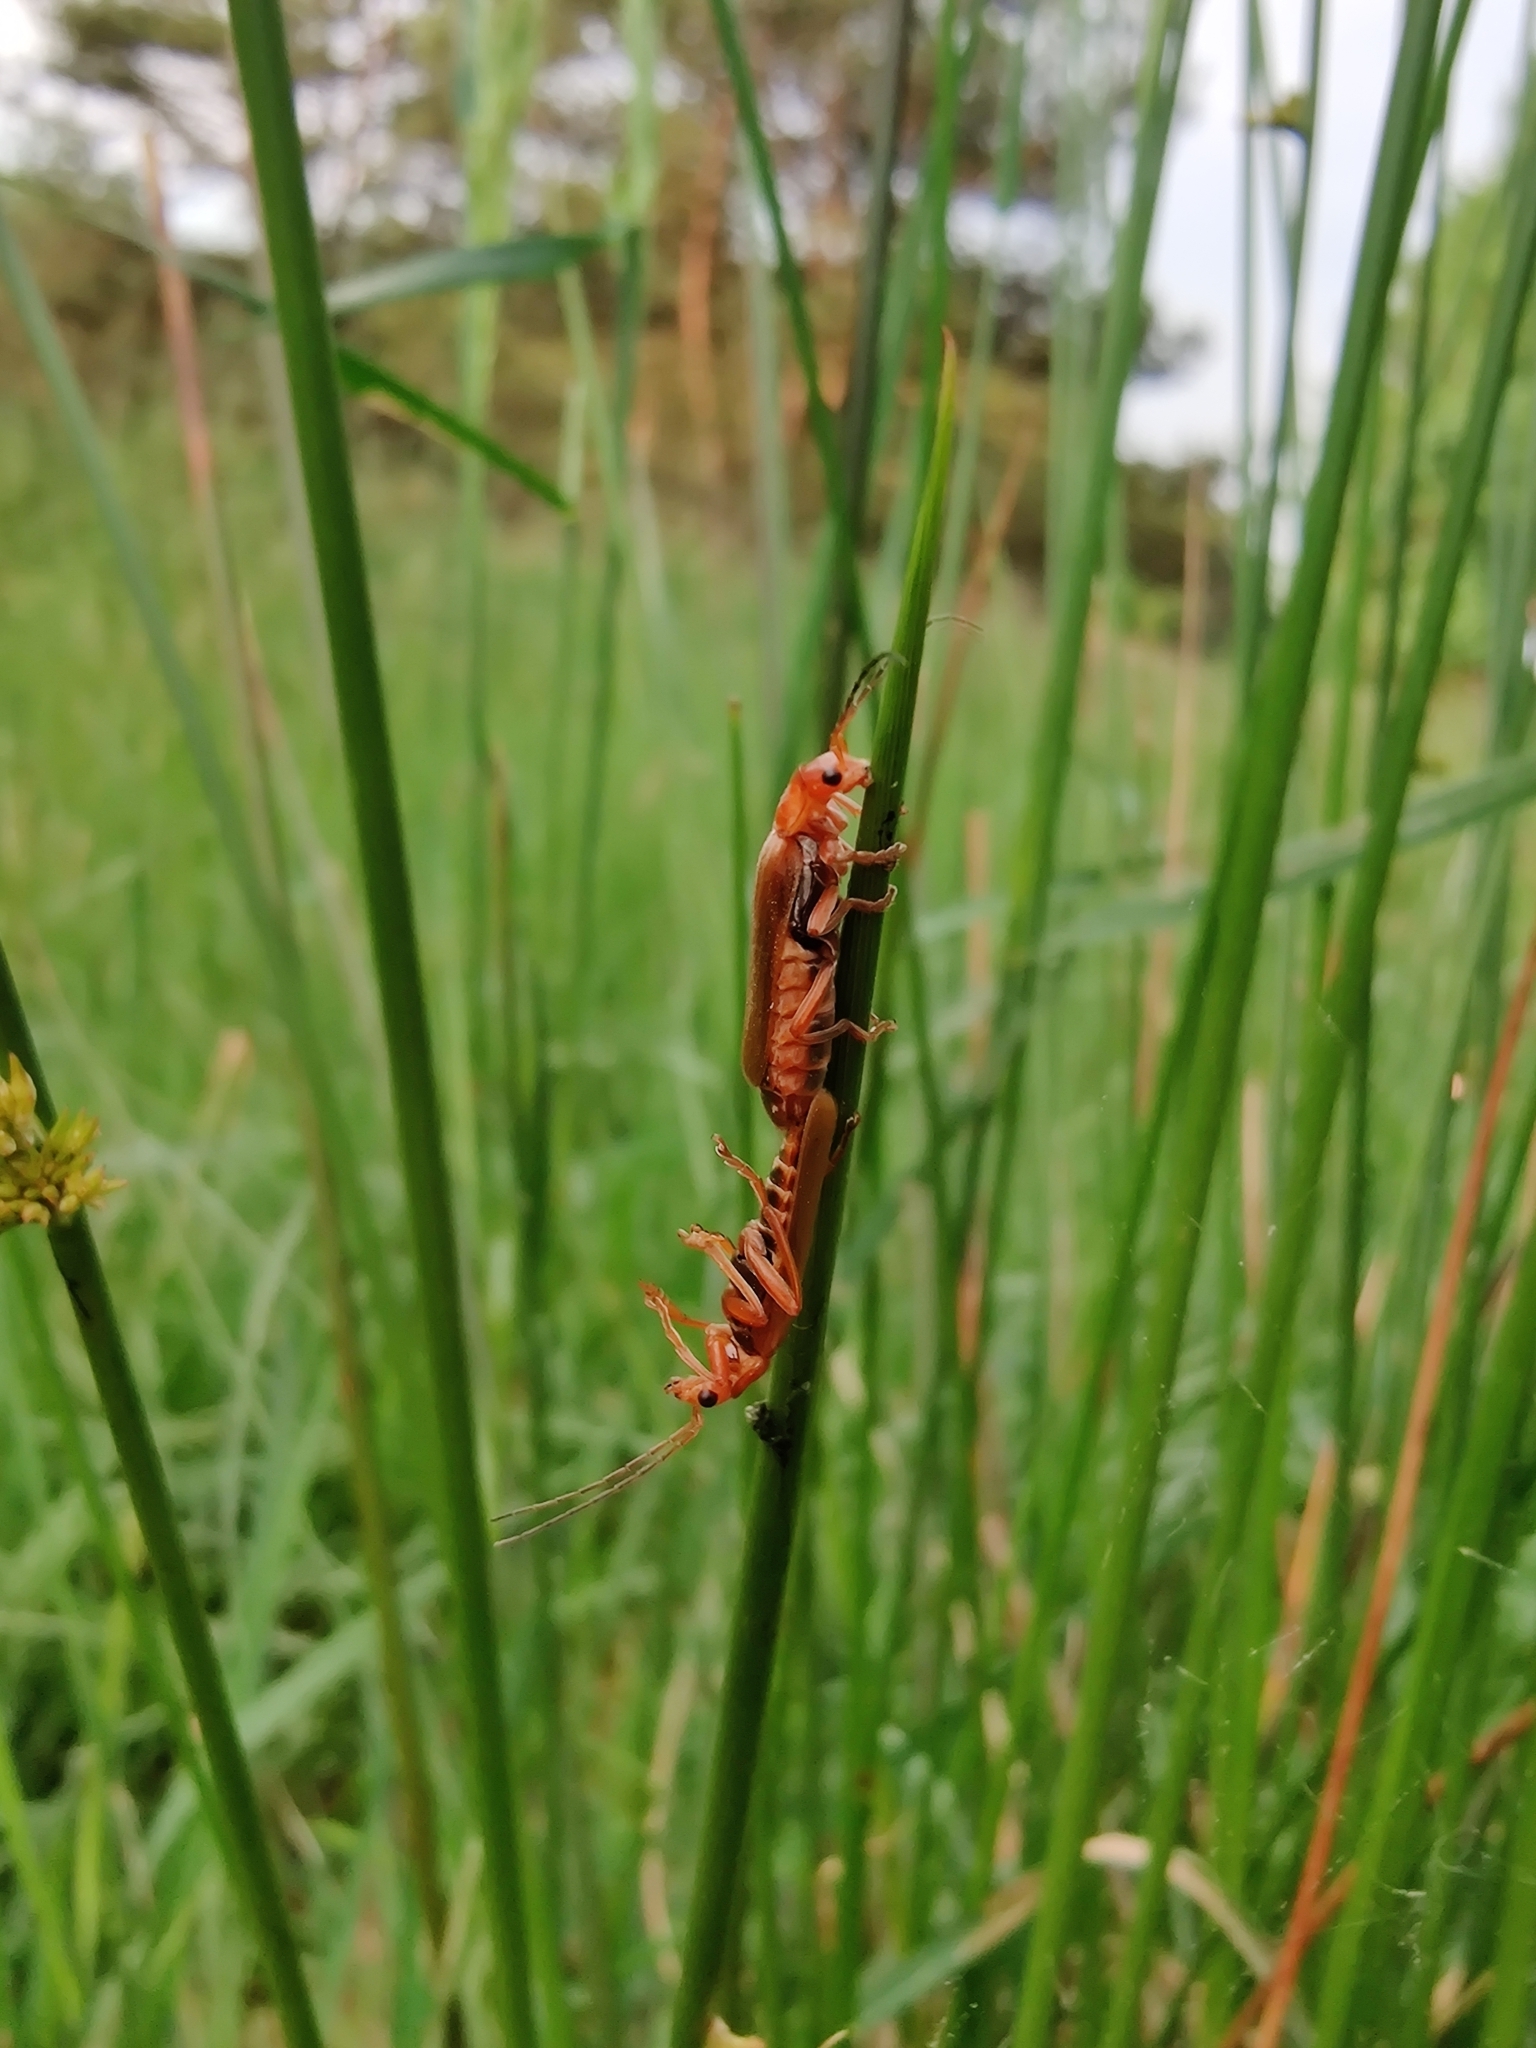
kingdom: Animalia
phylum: Arthropoda
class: Insecta
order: Coleoptera
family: Cantharidae
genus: Cantharis
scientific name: Cantharis rufa
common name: Red-spotted soldier beetle
